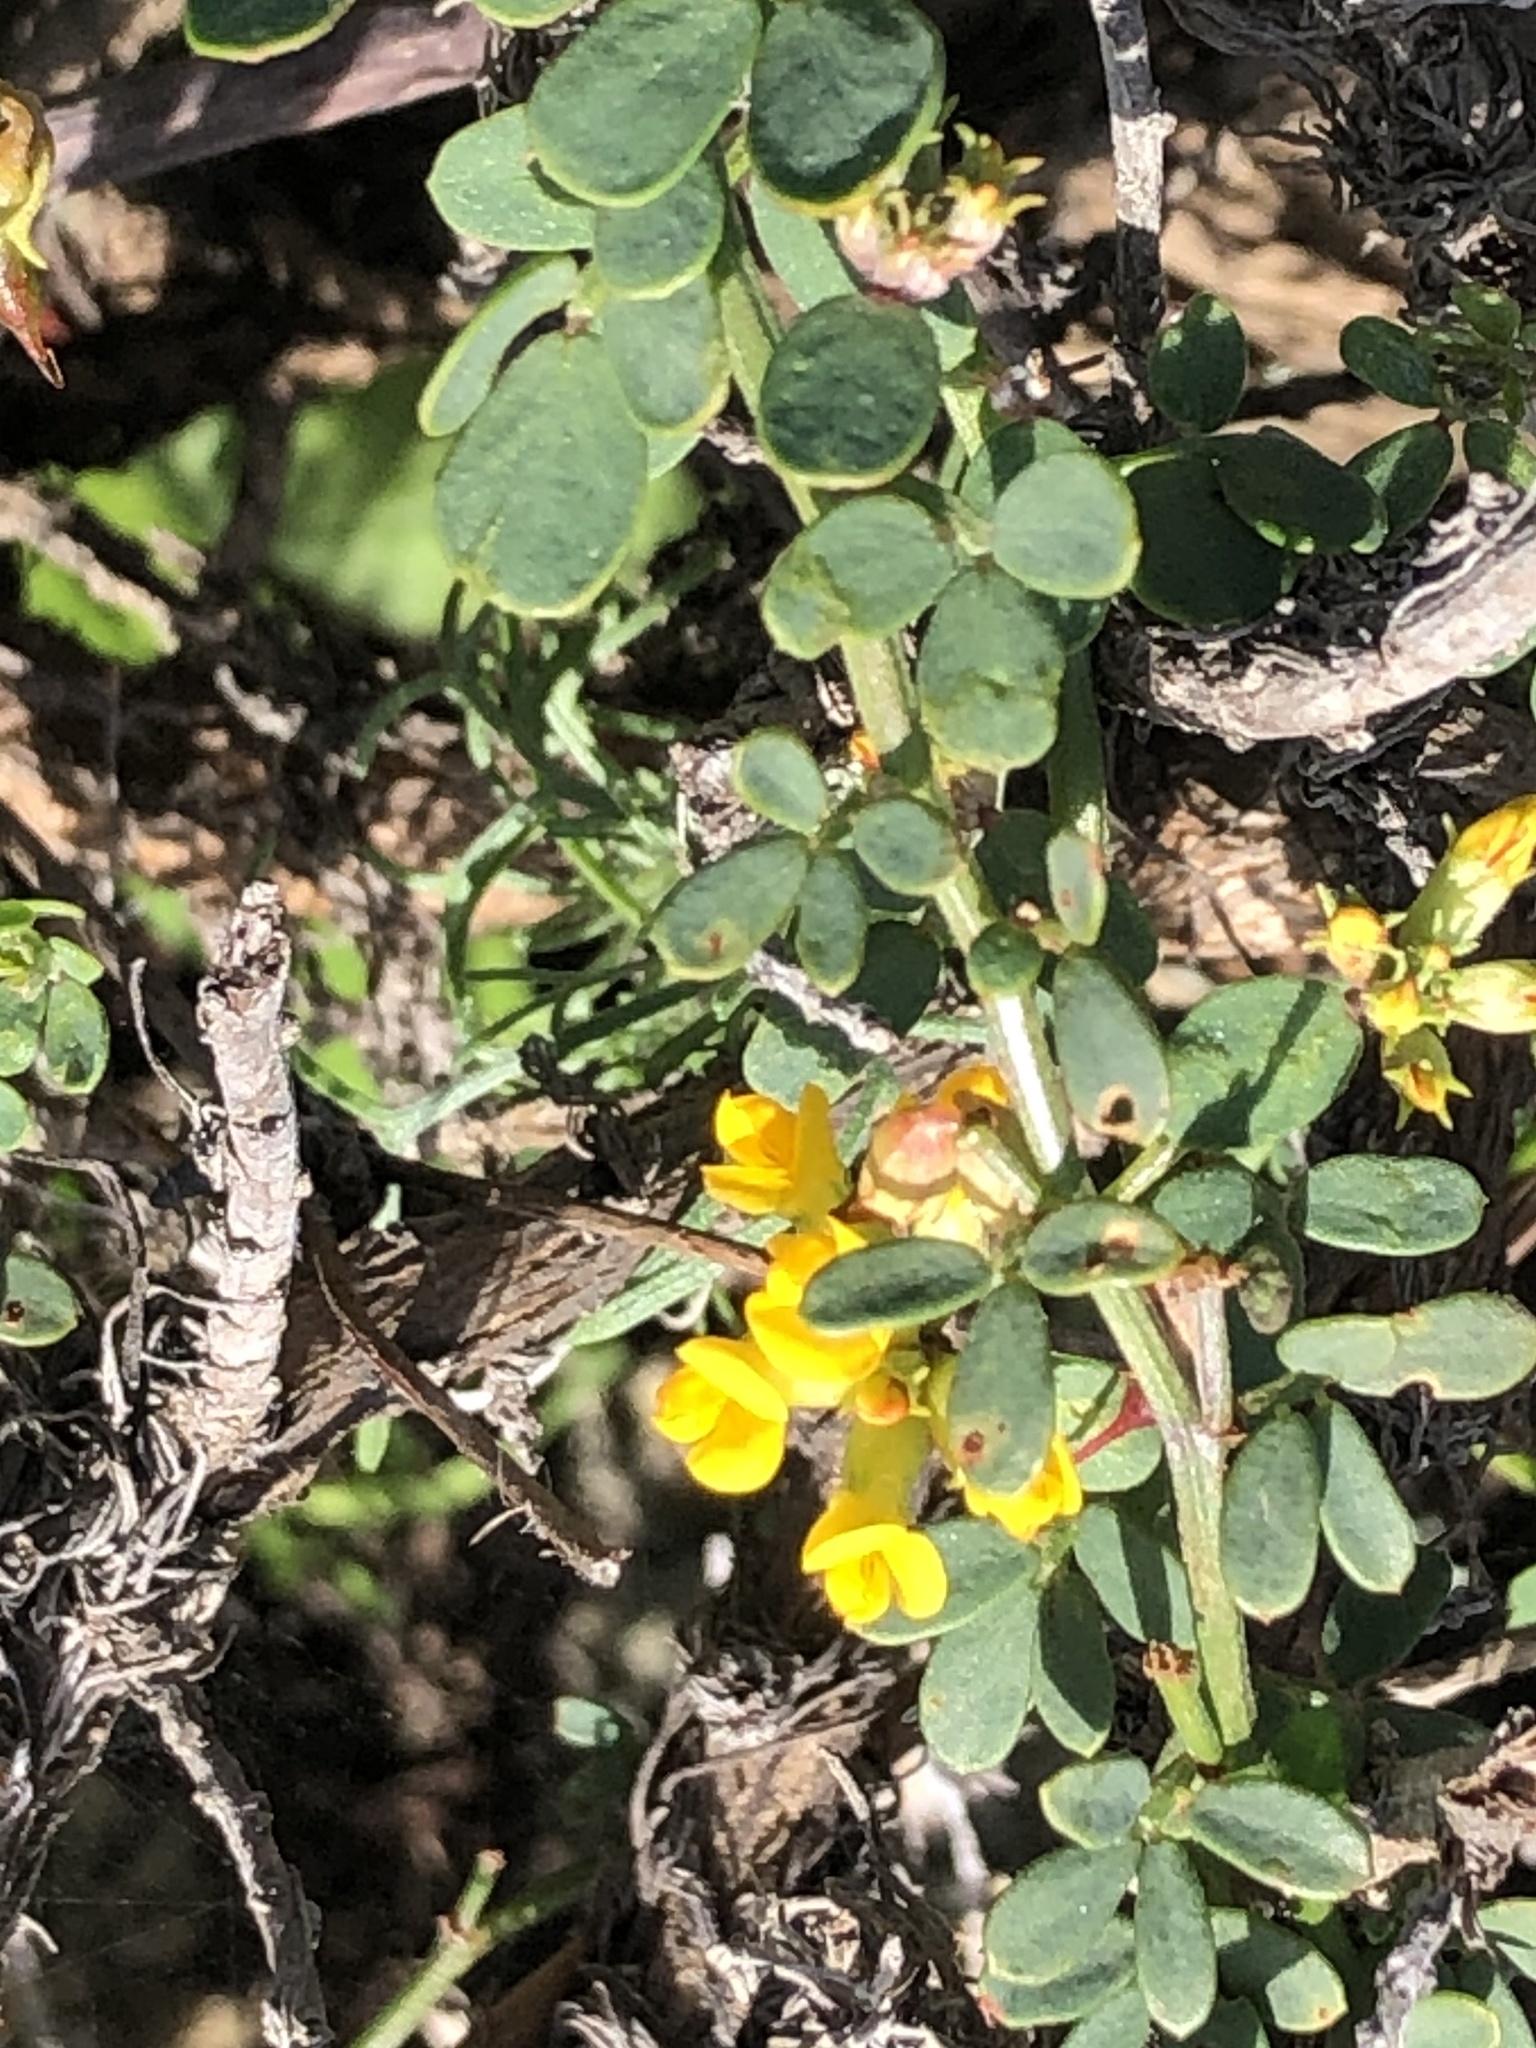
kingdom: Plantae
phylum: Tracheophyta
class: Magnoliopsida
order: Fabales
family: Fabaceae
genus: Acmispon
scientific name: Acmispon glaber
